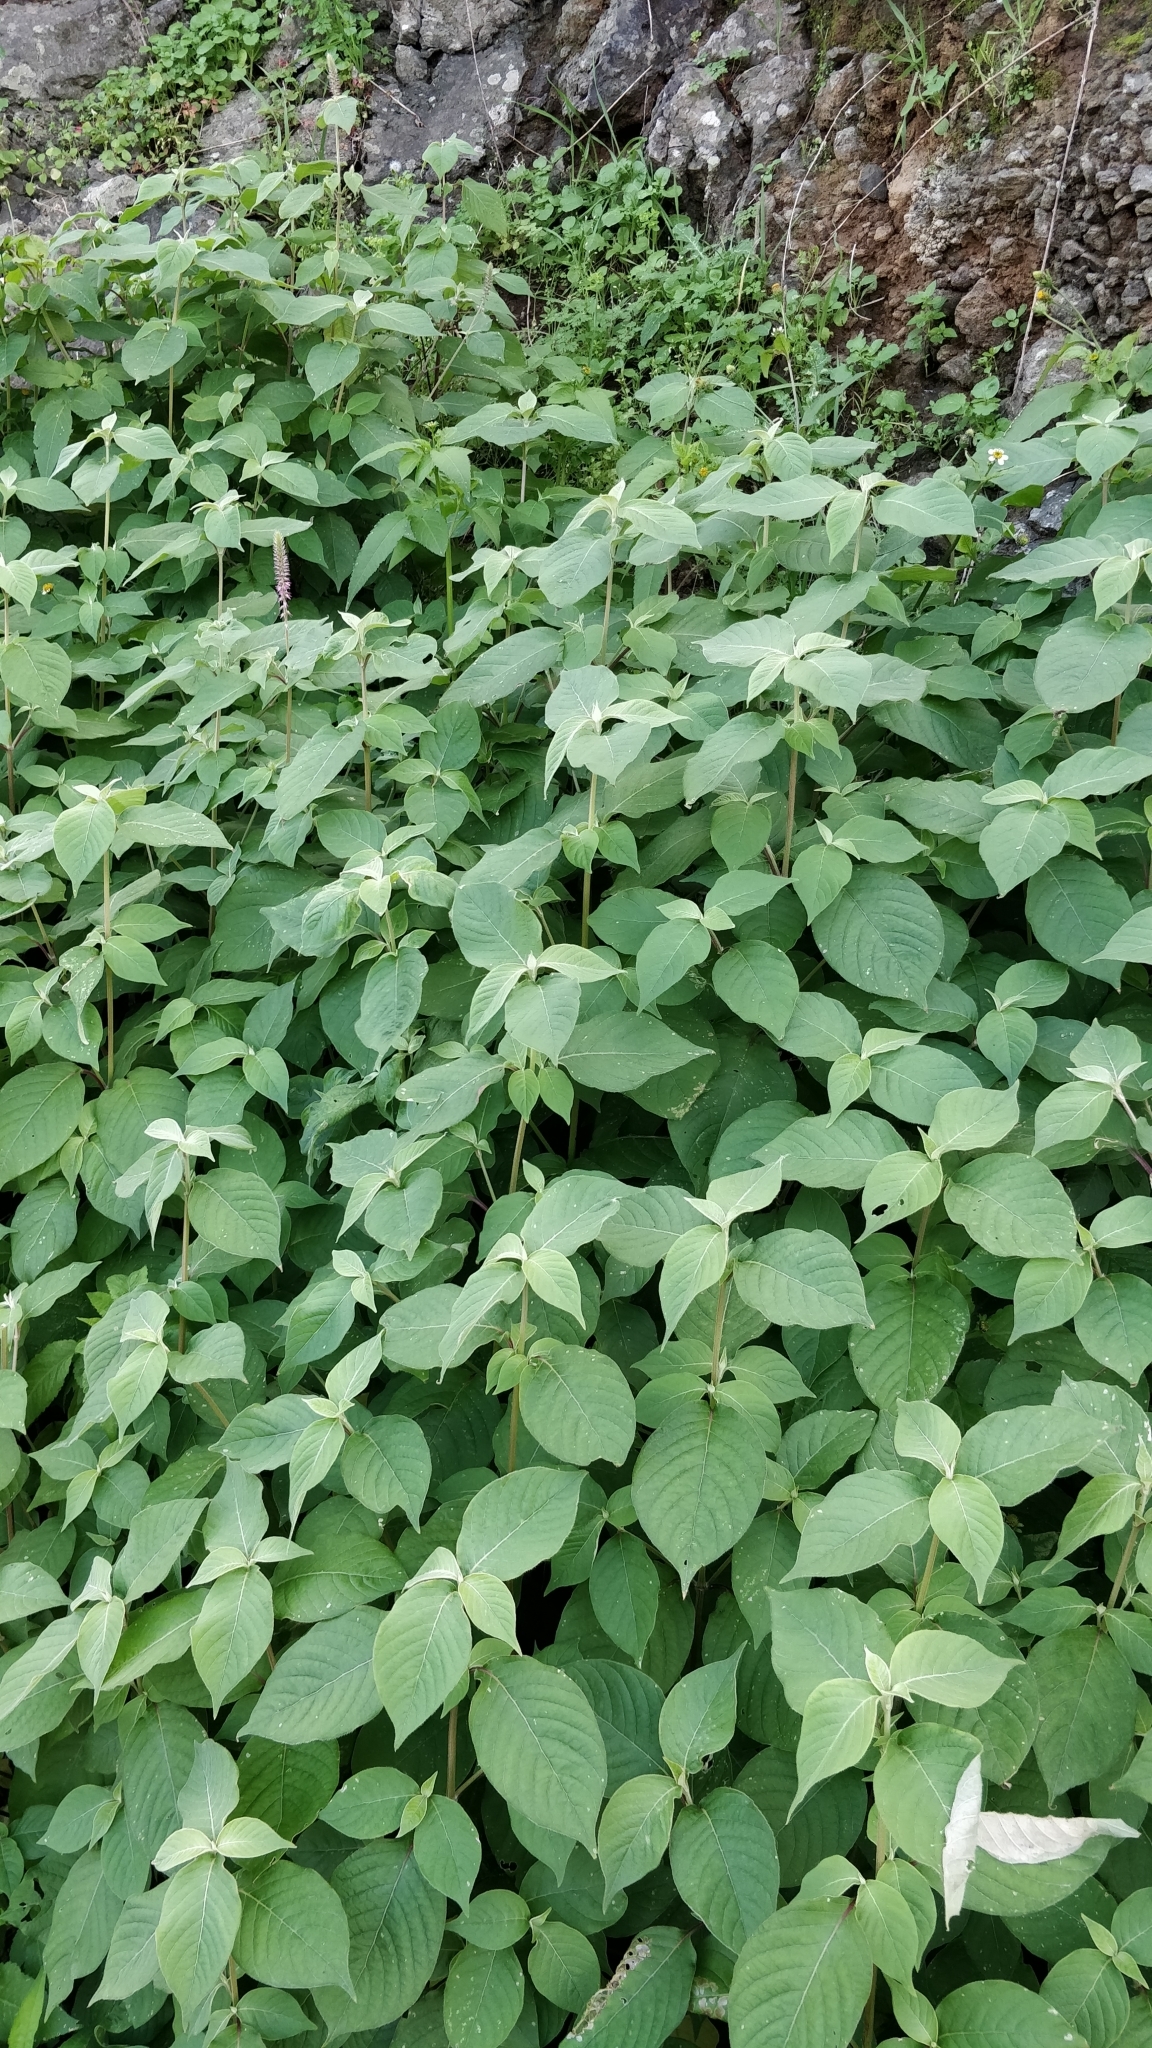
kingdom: Plantae
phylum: Tracheophyta
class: Magnoliopsida
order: Caryophyllales
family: Amaranthaceae
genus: Achyranthes
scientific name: Achyranthes aspera
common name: Devil's horsewhip
